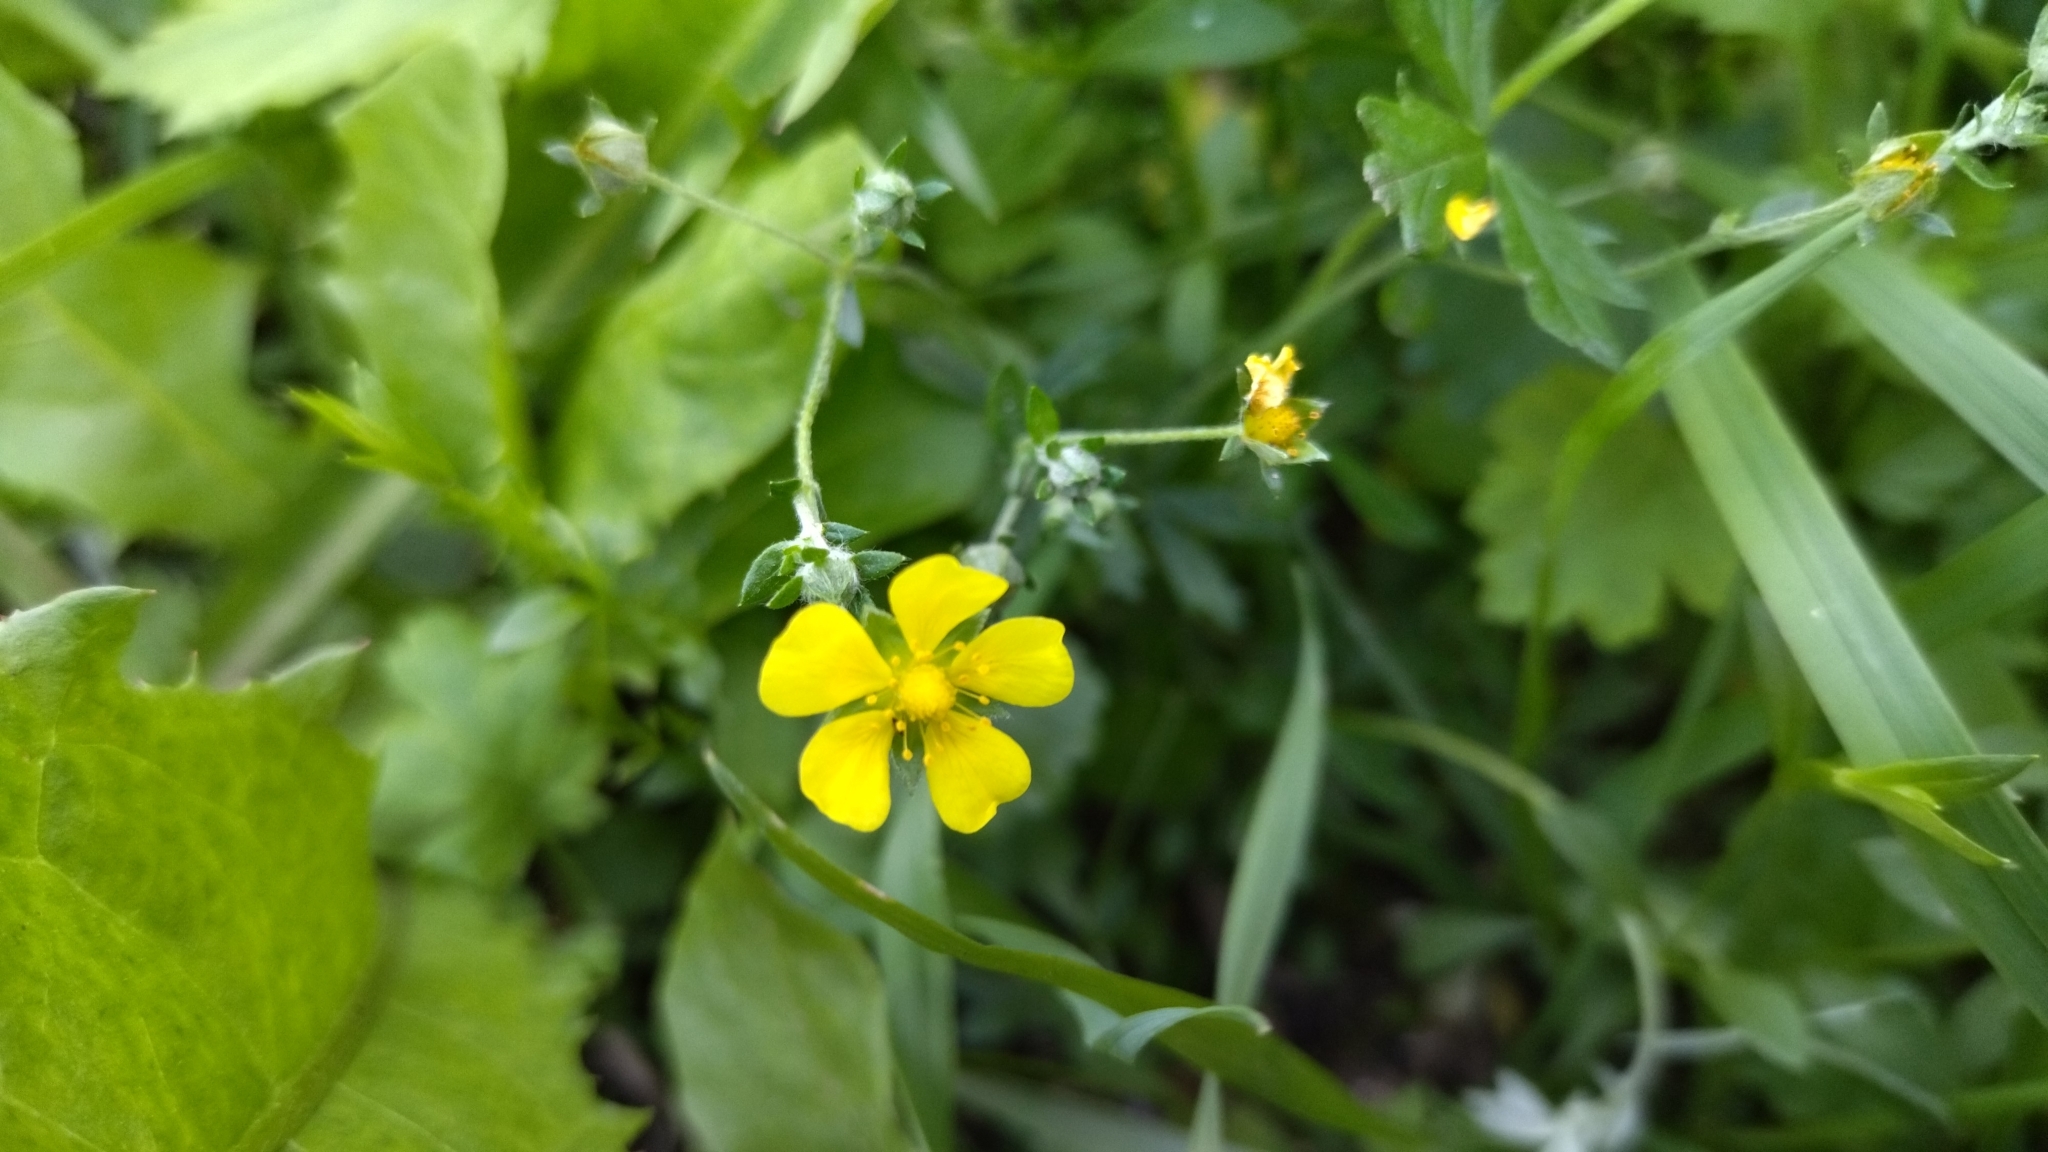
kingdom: Plantae
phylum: Tracheophyta
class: Magnoliopsida
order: Rosales
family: Rosaceae
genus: Potentilla
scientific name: Potentilla argentea
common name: Hoary cinquefoil
